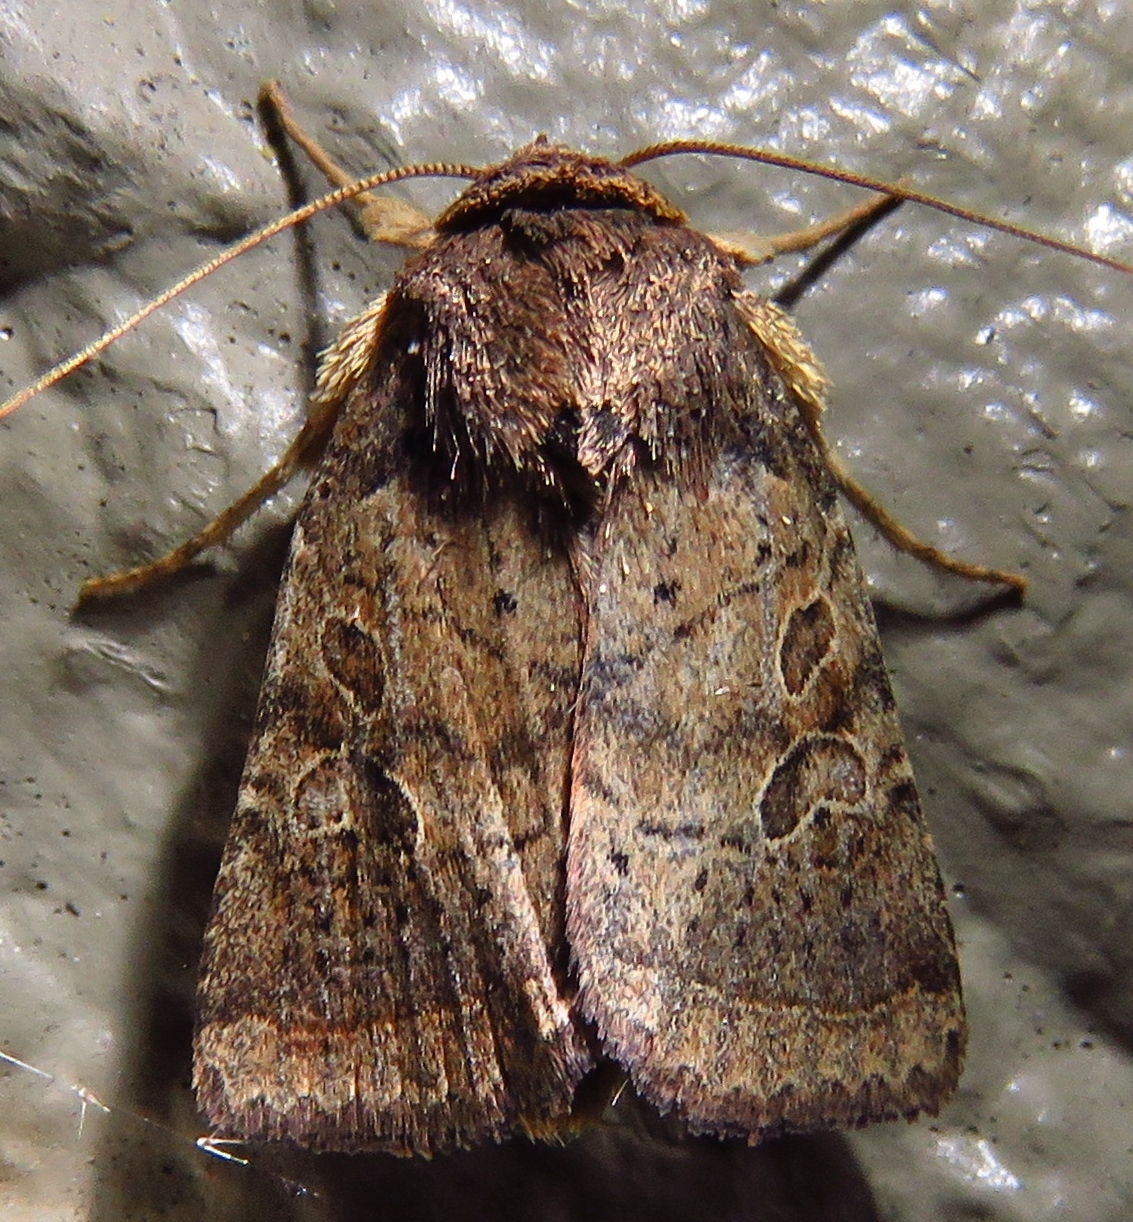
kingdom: Animalia
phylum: Arthropoda
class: Insecta
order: Lepidoptera
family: Noctuidae
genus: Orthodes
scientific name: Orthodes furtiva
